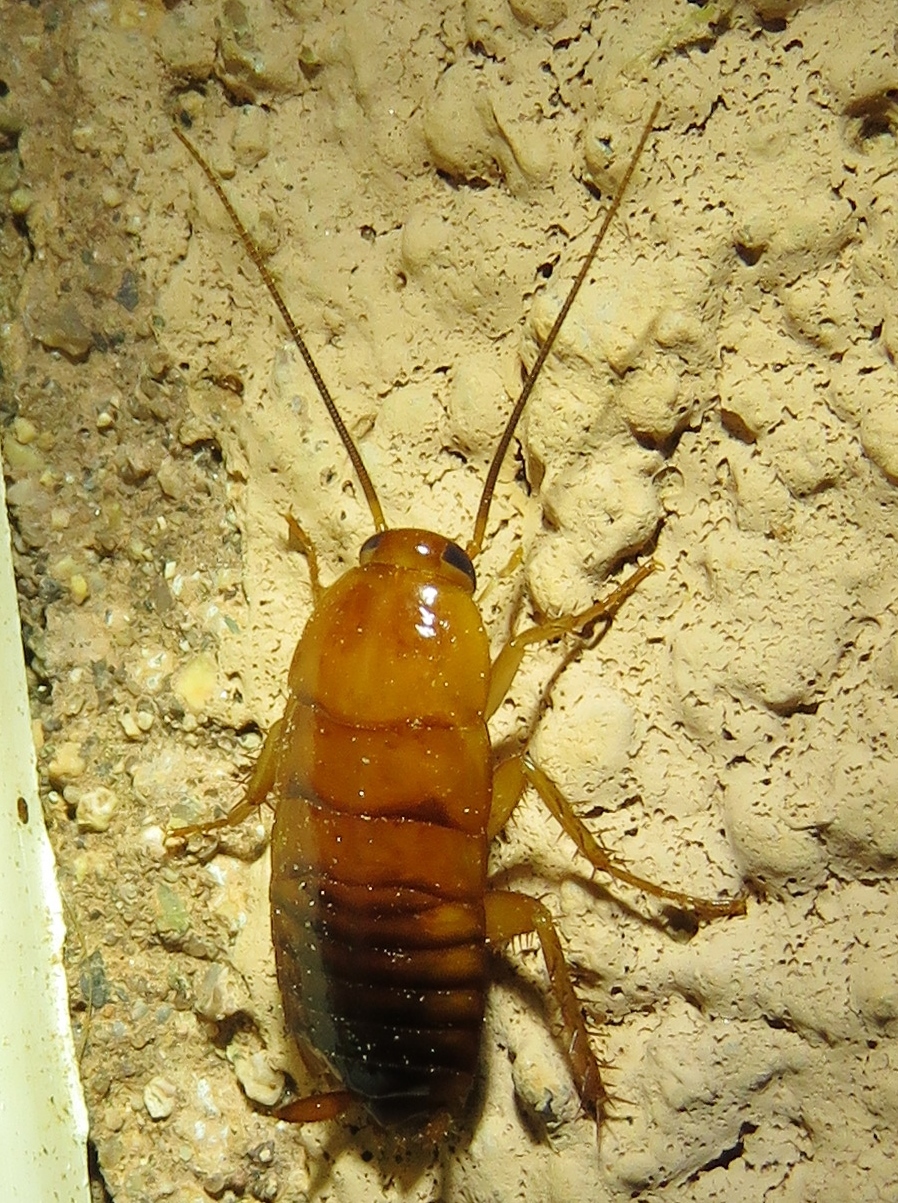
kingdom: Animalia
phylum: Arthropoda
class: Insecta
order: Blattodea
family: Blattidae
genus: Periplaneta
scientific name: Periplaneta lateralis
